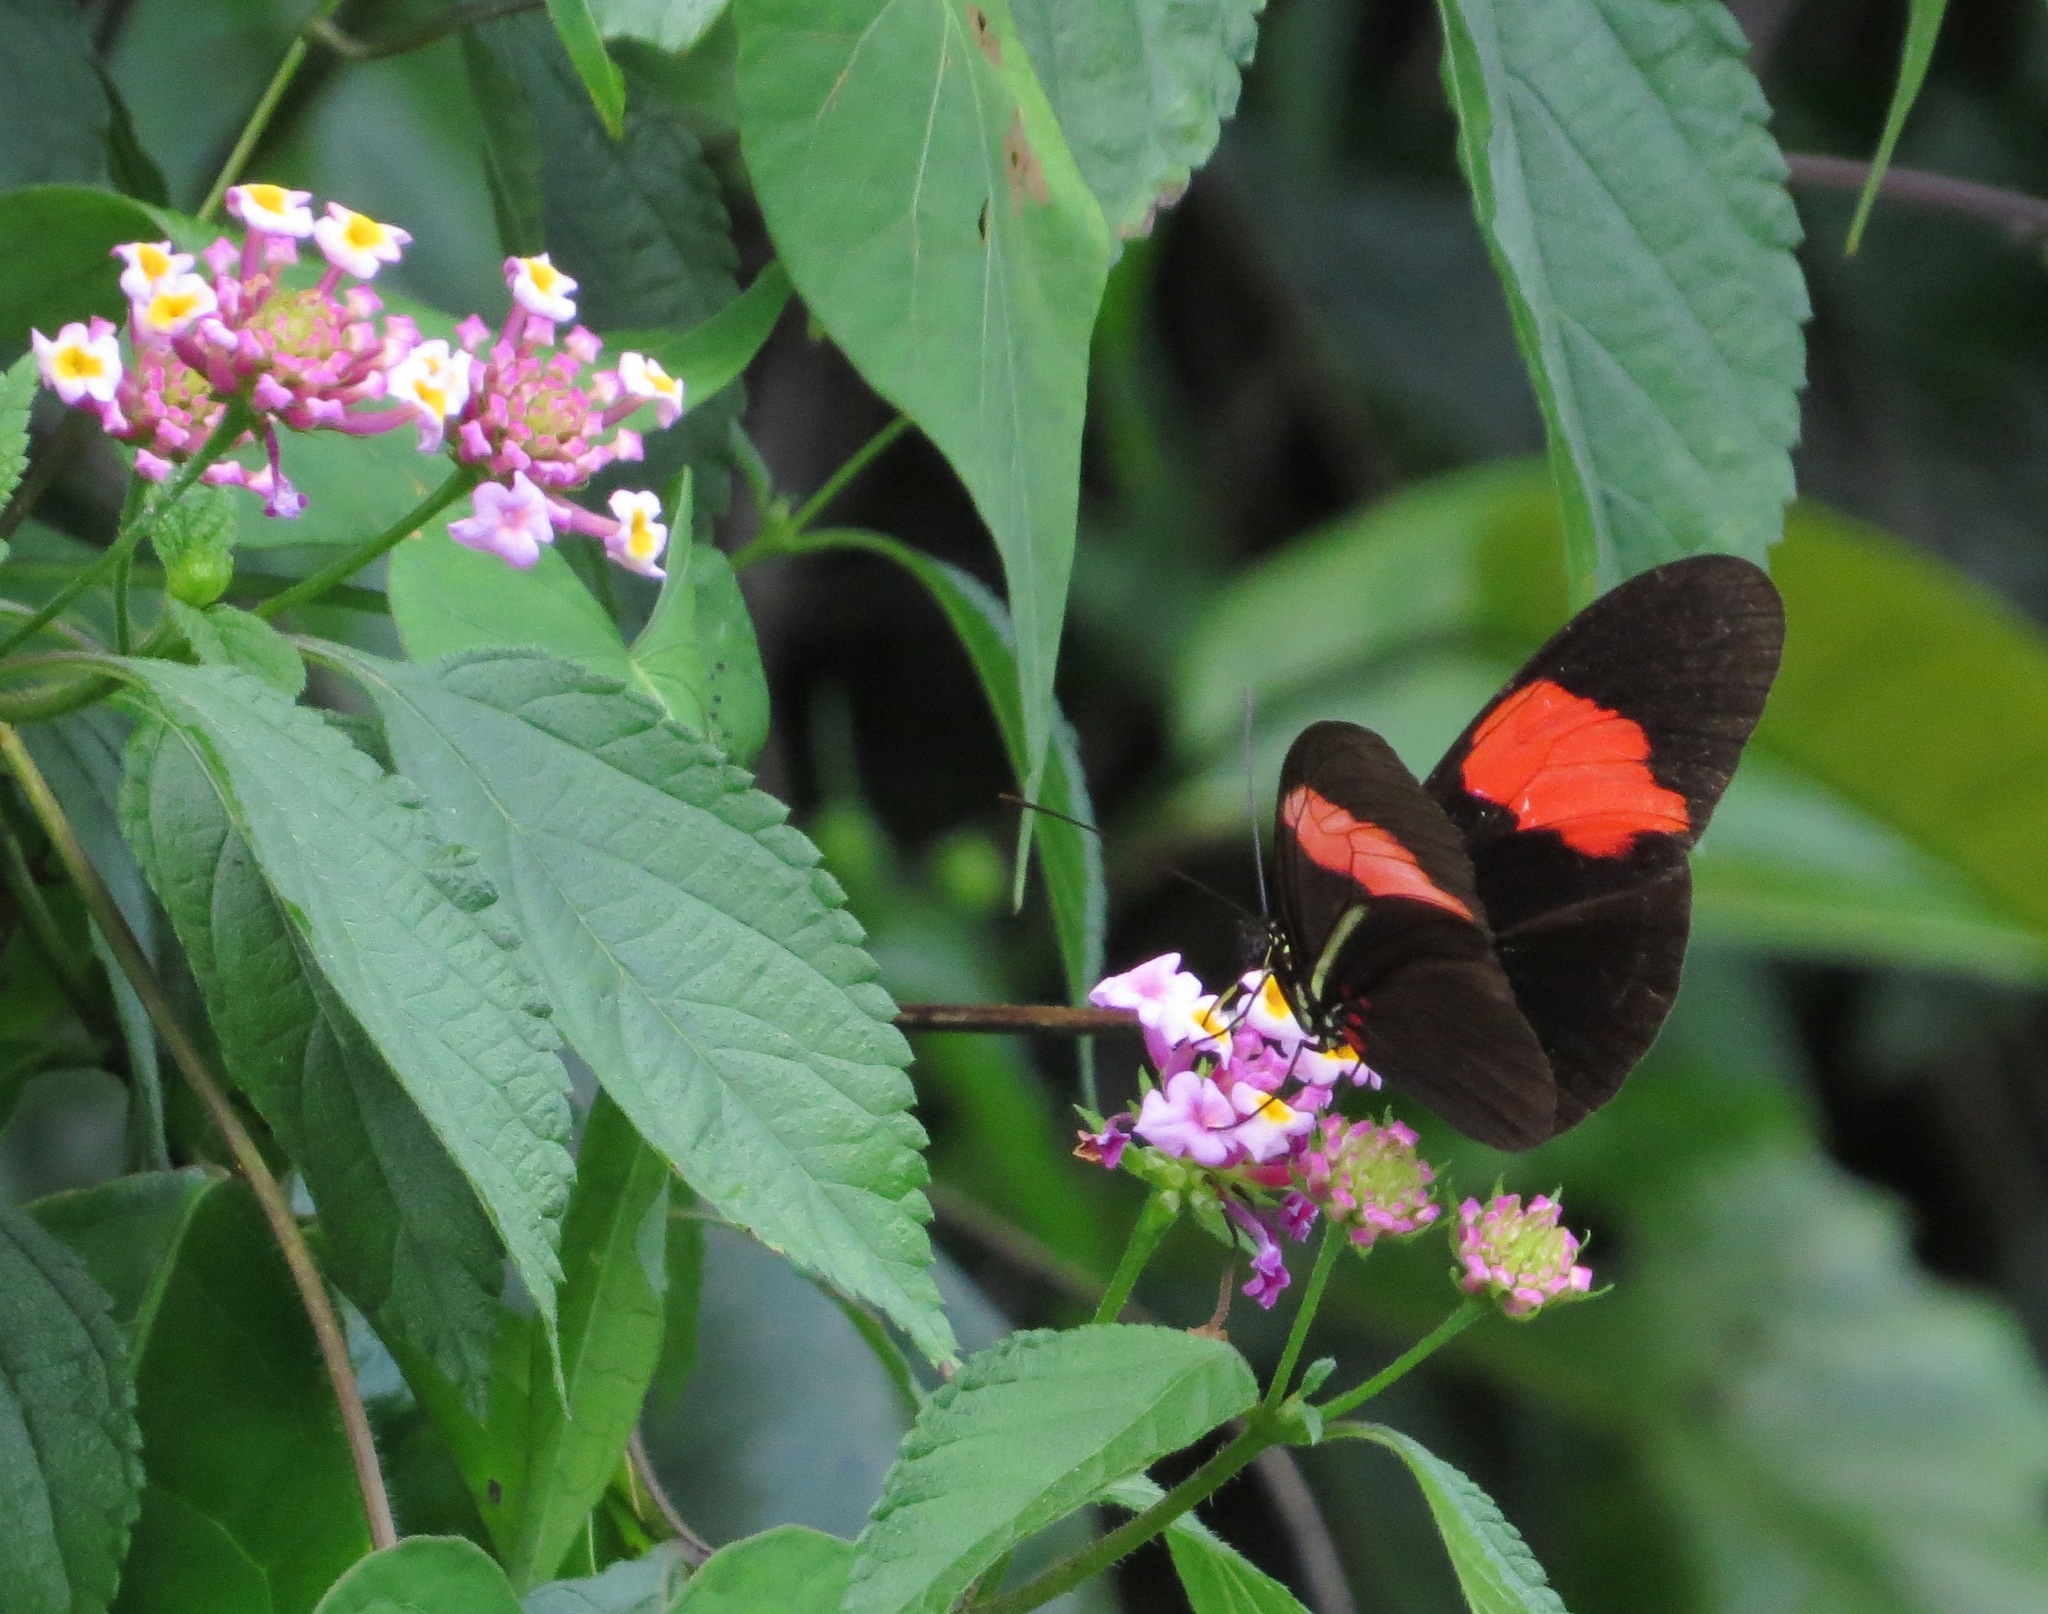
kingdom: Animalia
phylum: Arthropoda
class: Insecta
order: Lepidoptera
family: Nymphalidae
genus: Heliconius
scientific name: Heliconius erato
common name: Common patch longwing
